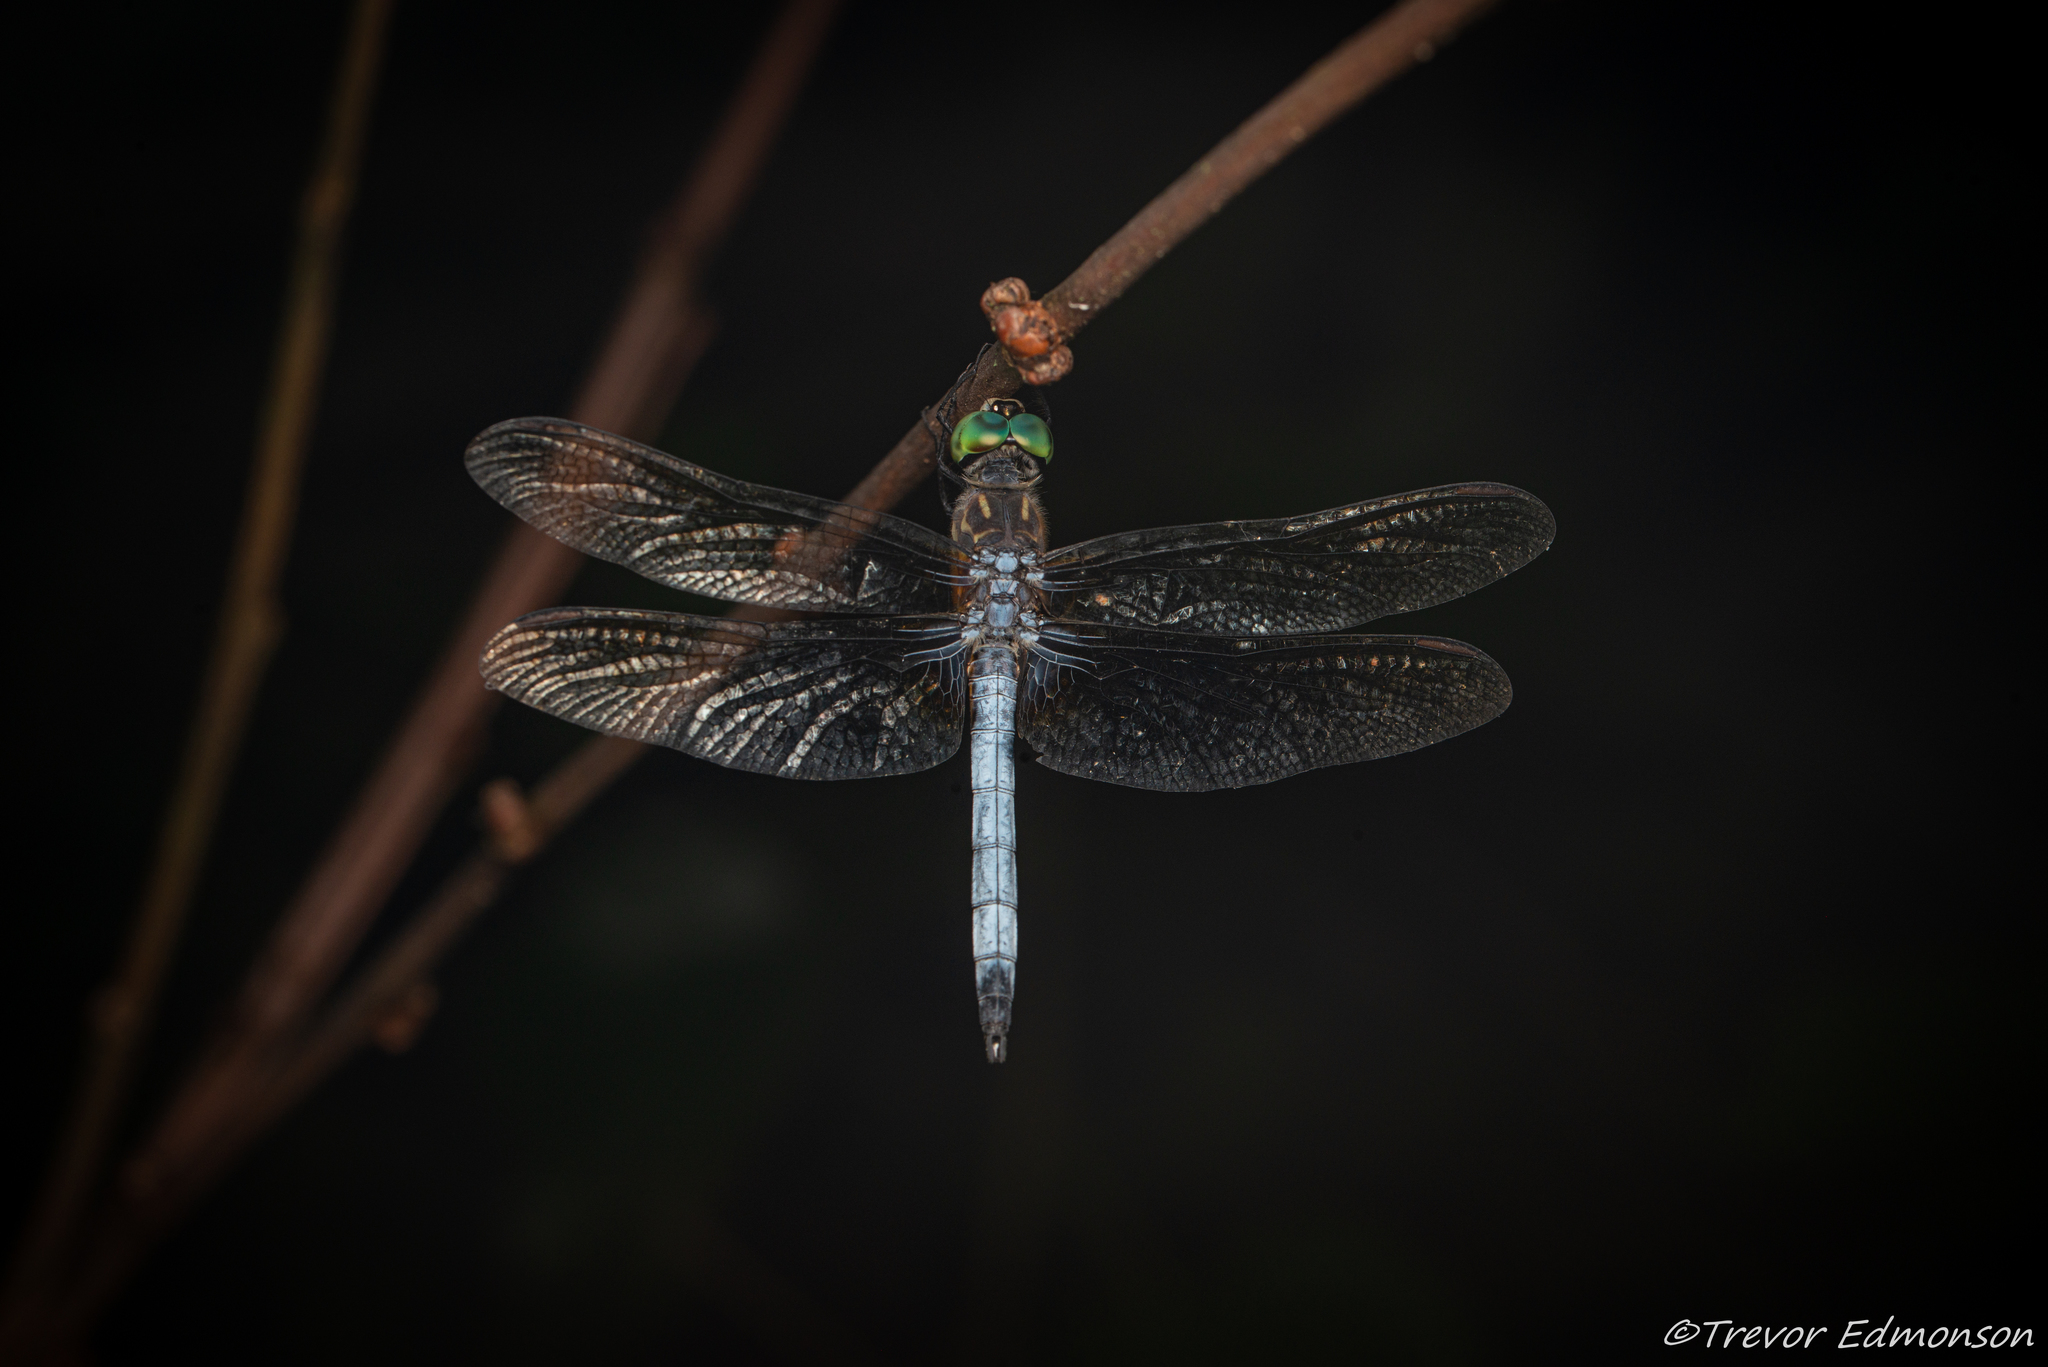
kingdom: Animalia
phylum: Arthropoda
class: Insecta
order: Odonata
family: Libellulidae
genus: Pachydiplax
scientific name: Pachydiplax longipennis
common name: Blue dasher
